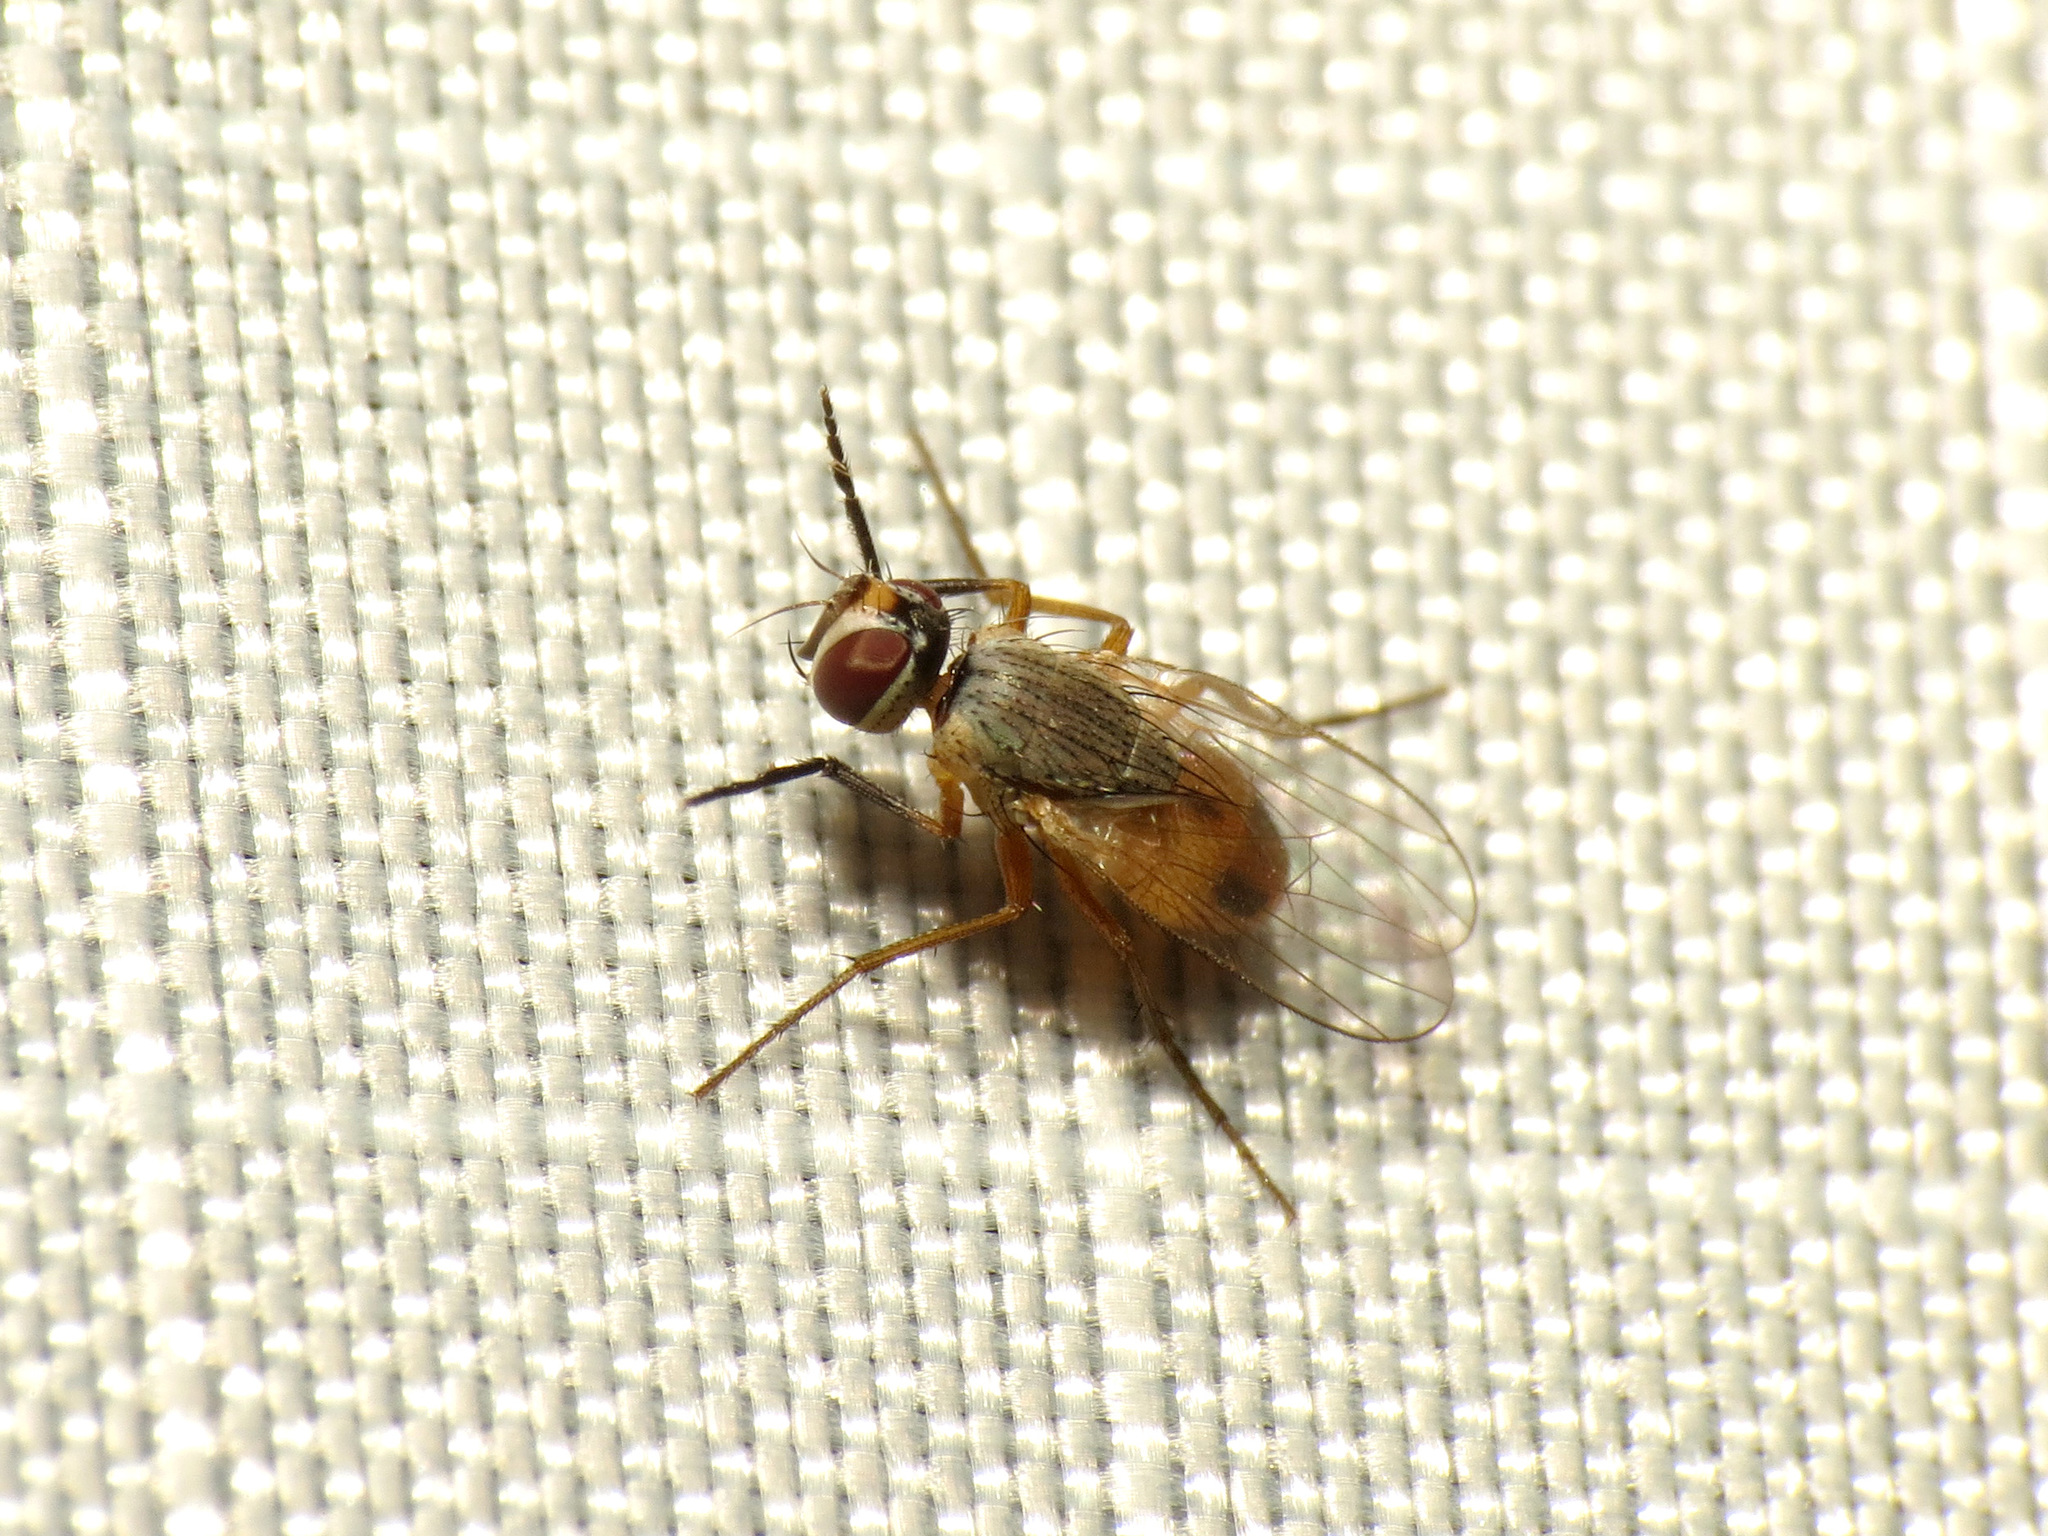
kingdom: Animalia
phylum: Arthropoda
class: Insecta
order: Diptera
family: Muscidae
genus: Atherigona
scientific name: Atherigona reversura
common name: Bermudagrass stem maggot
